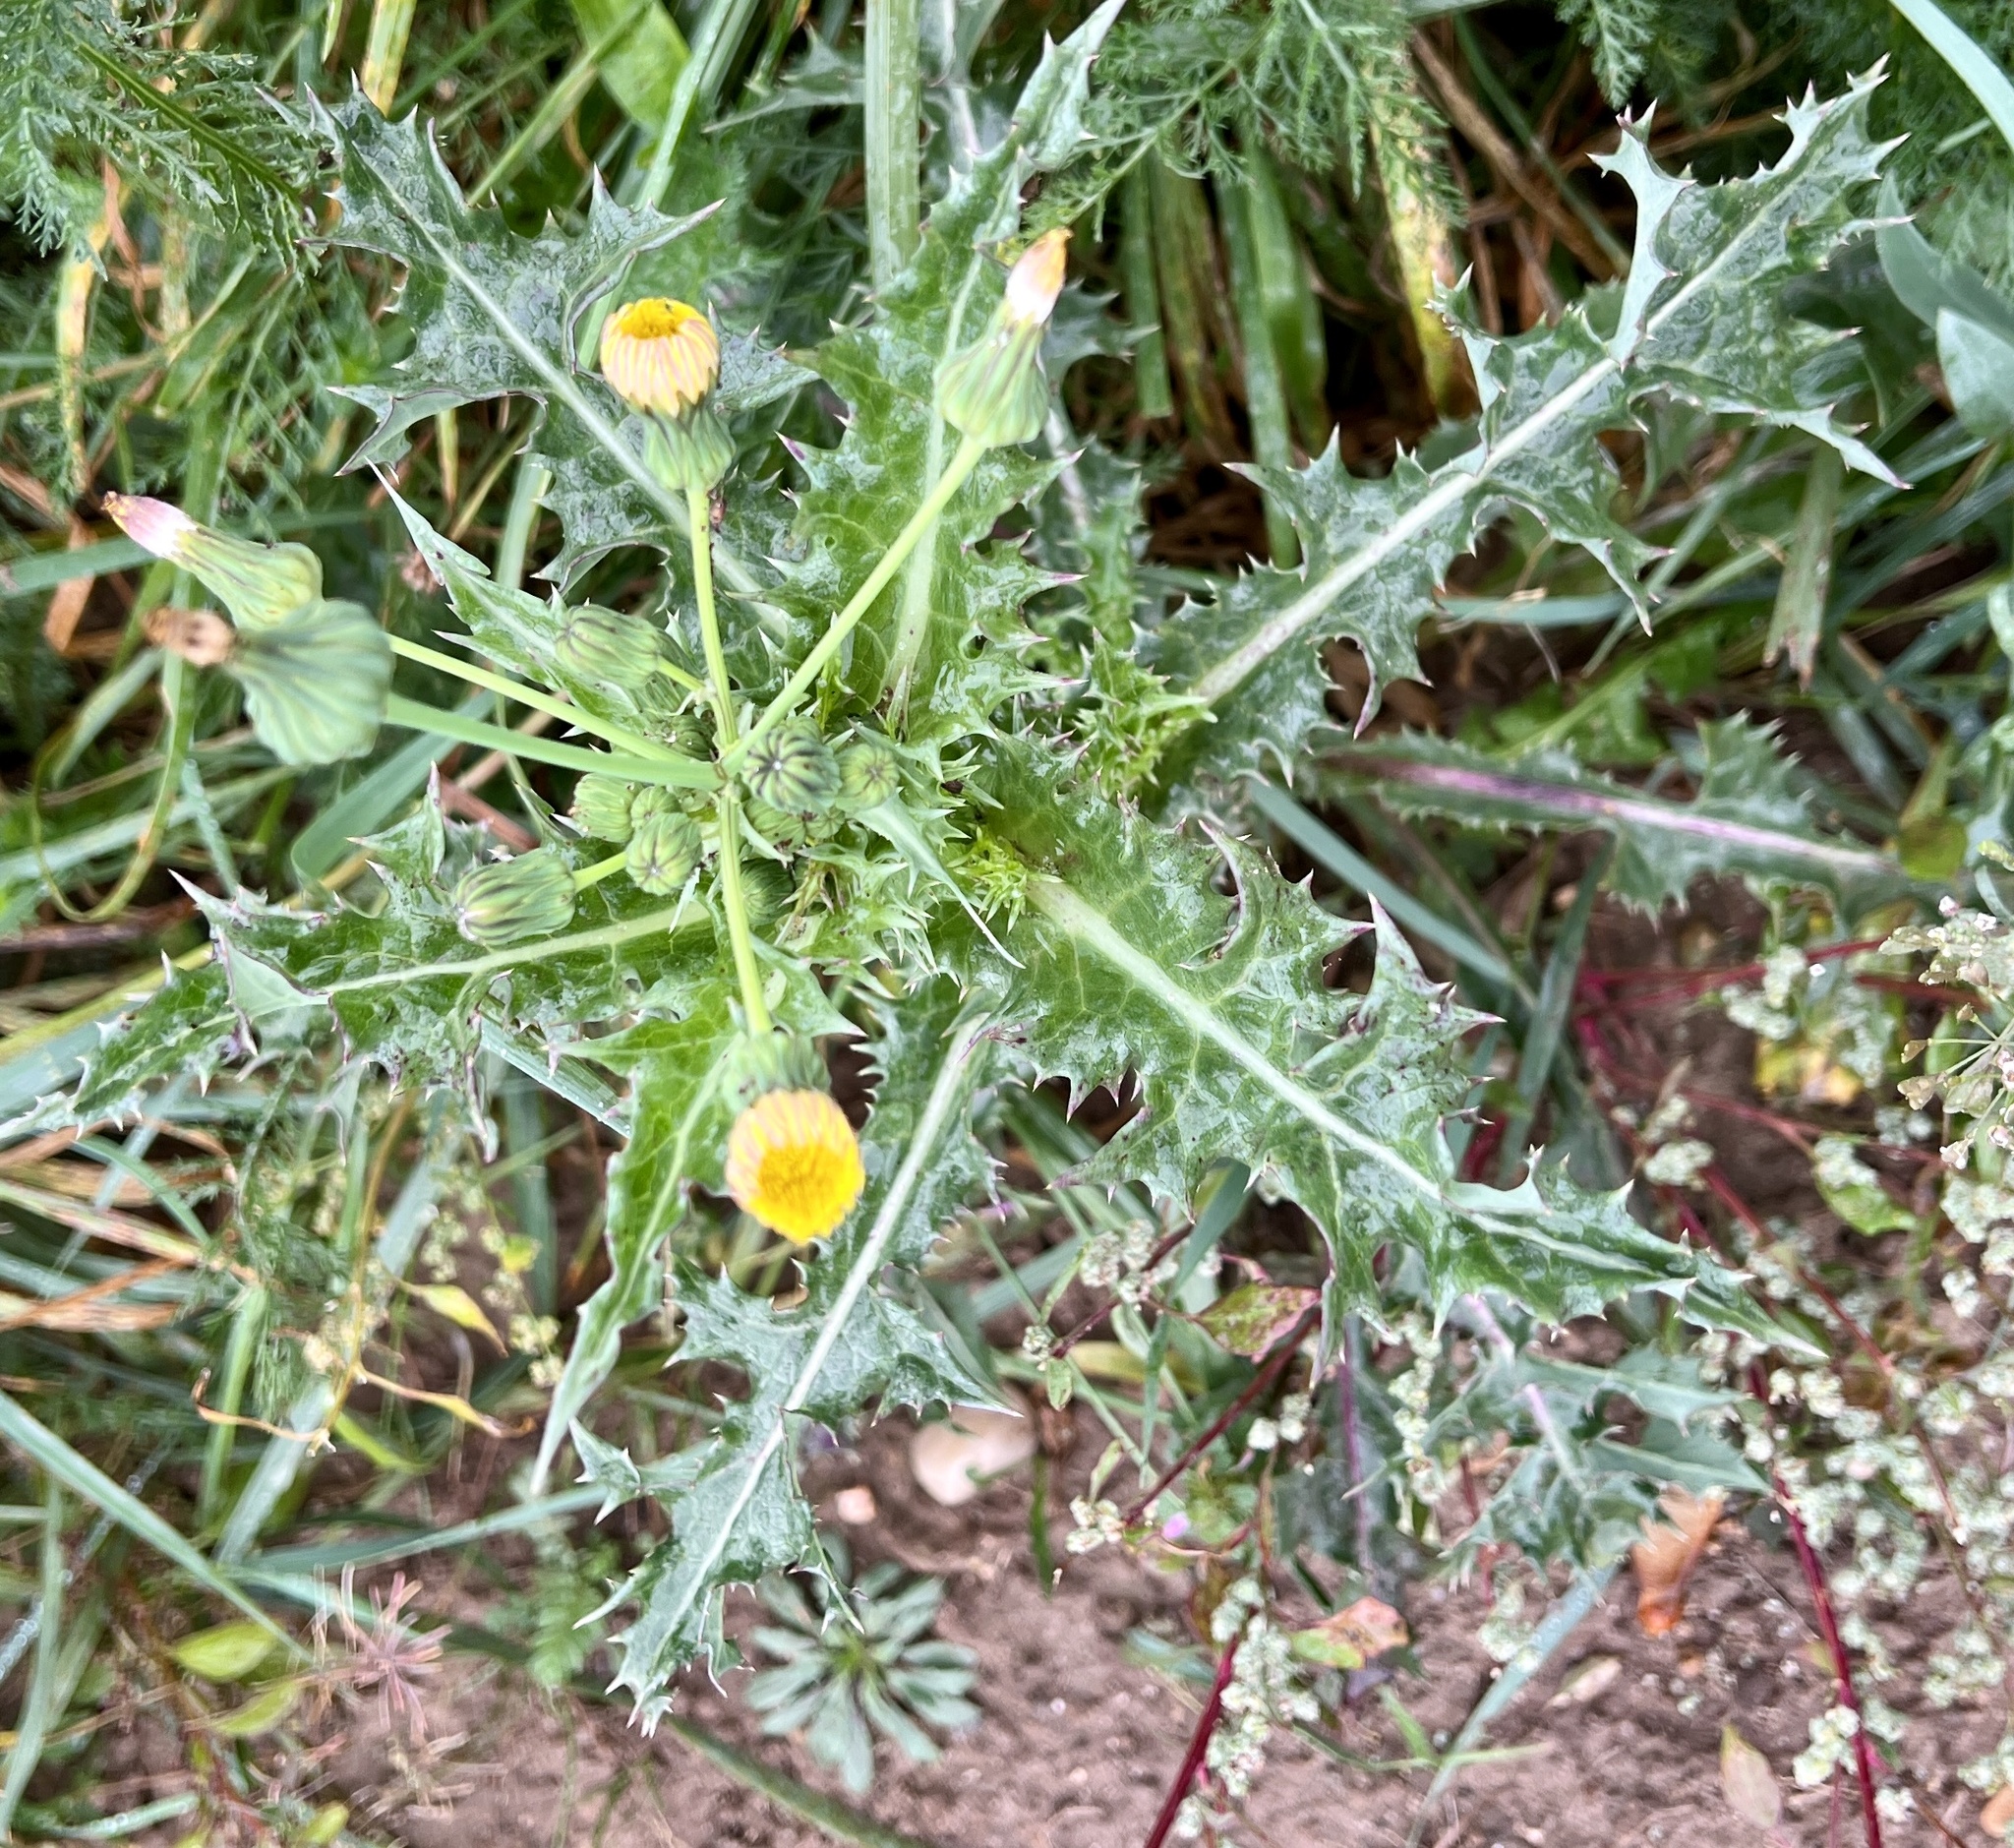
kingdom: Plantae
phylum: Tracheophyta
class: Magnoliopsida
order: Asterales
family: Asteraceae
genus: Sonchus
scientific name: Sonchus asper
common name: Prickly sow-thistle
